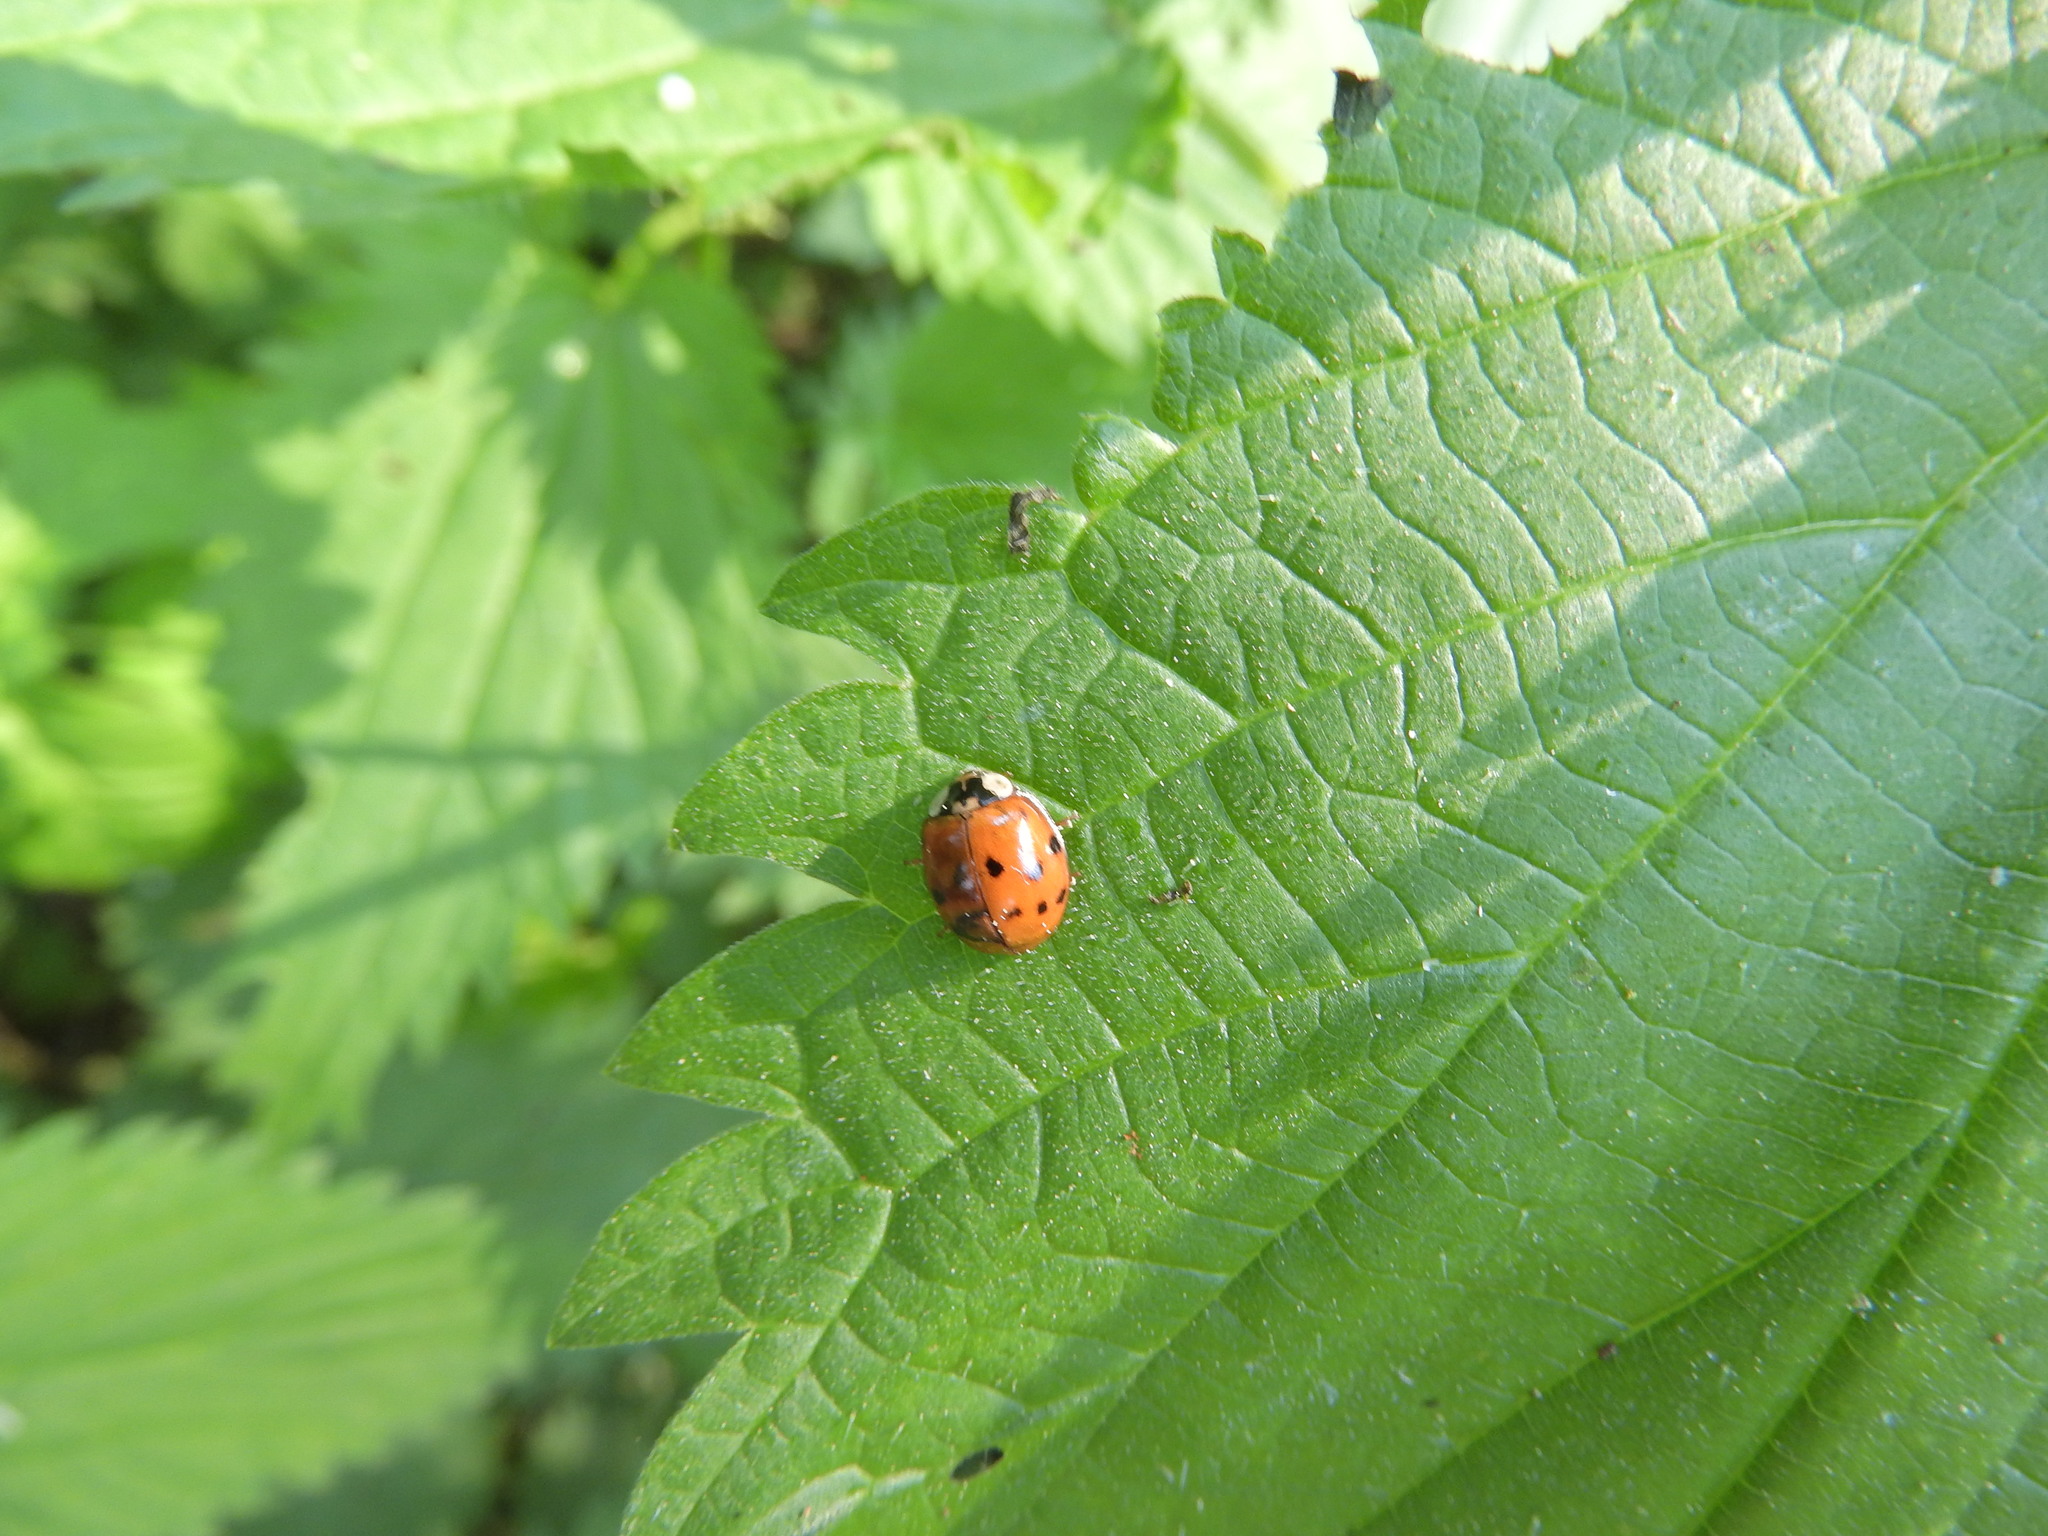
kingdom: Animalia
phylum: Arthropoda
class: Insecta
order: Coleoptera
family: Coccinellidae
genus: Harmonia
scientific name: Harmonia axyridis
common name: Harlequin ladybird
